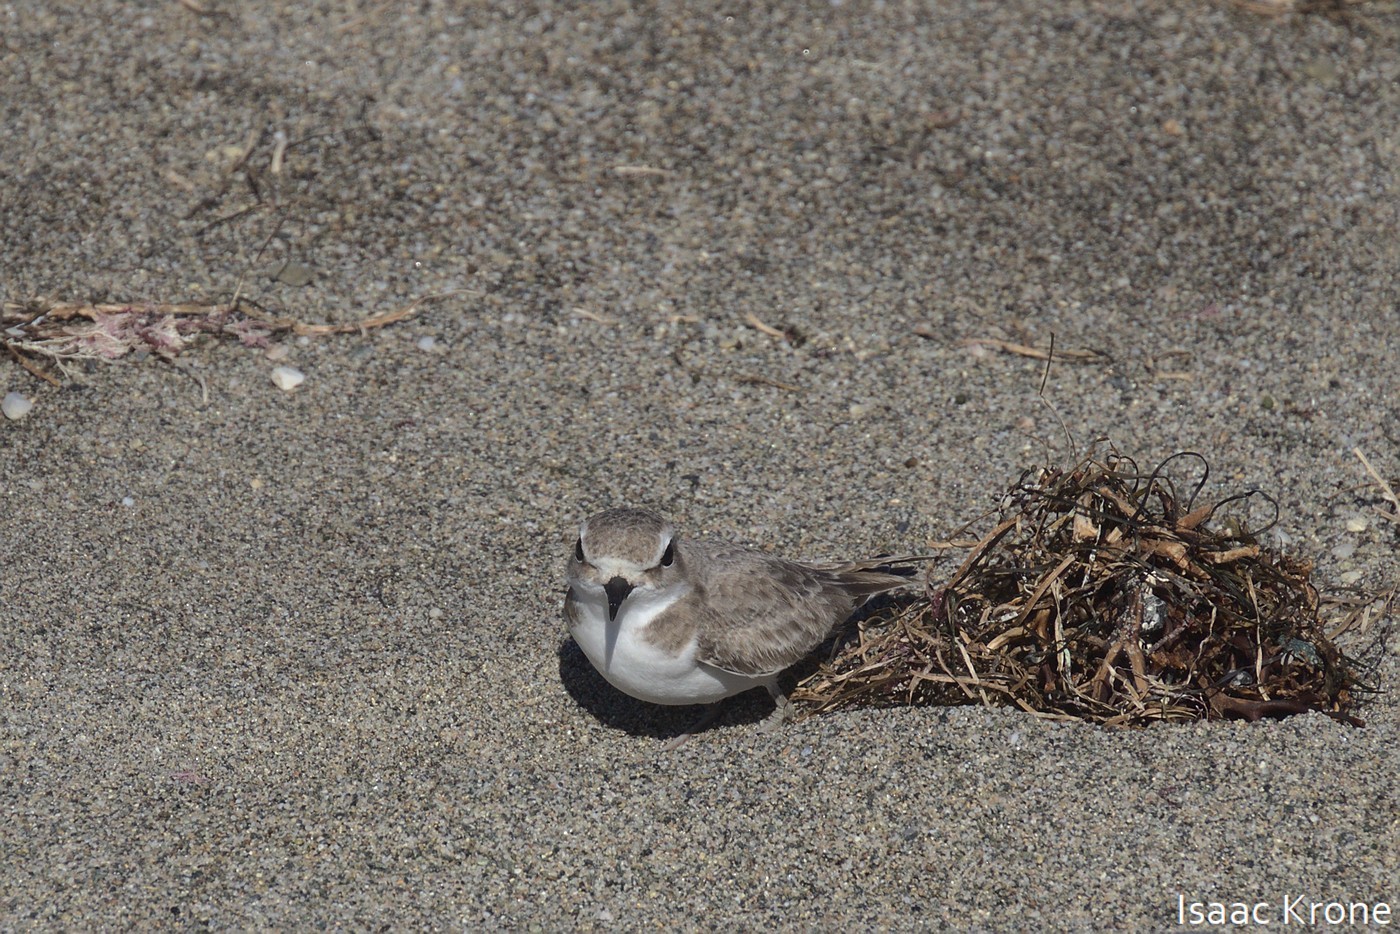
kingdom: Animalia
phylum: Chordata
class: Aves
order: Charadriiformes
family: Charadriidae
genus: Anarhynchus
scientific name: Anarhynchus
